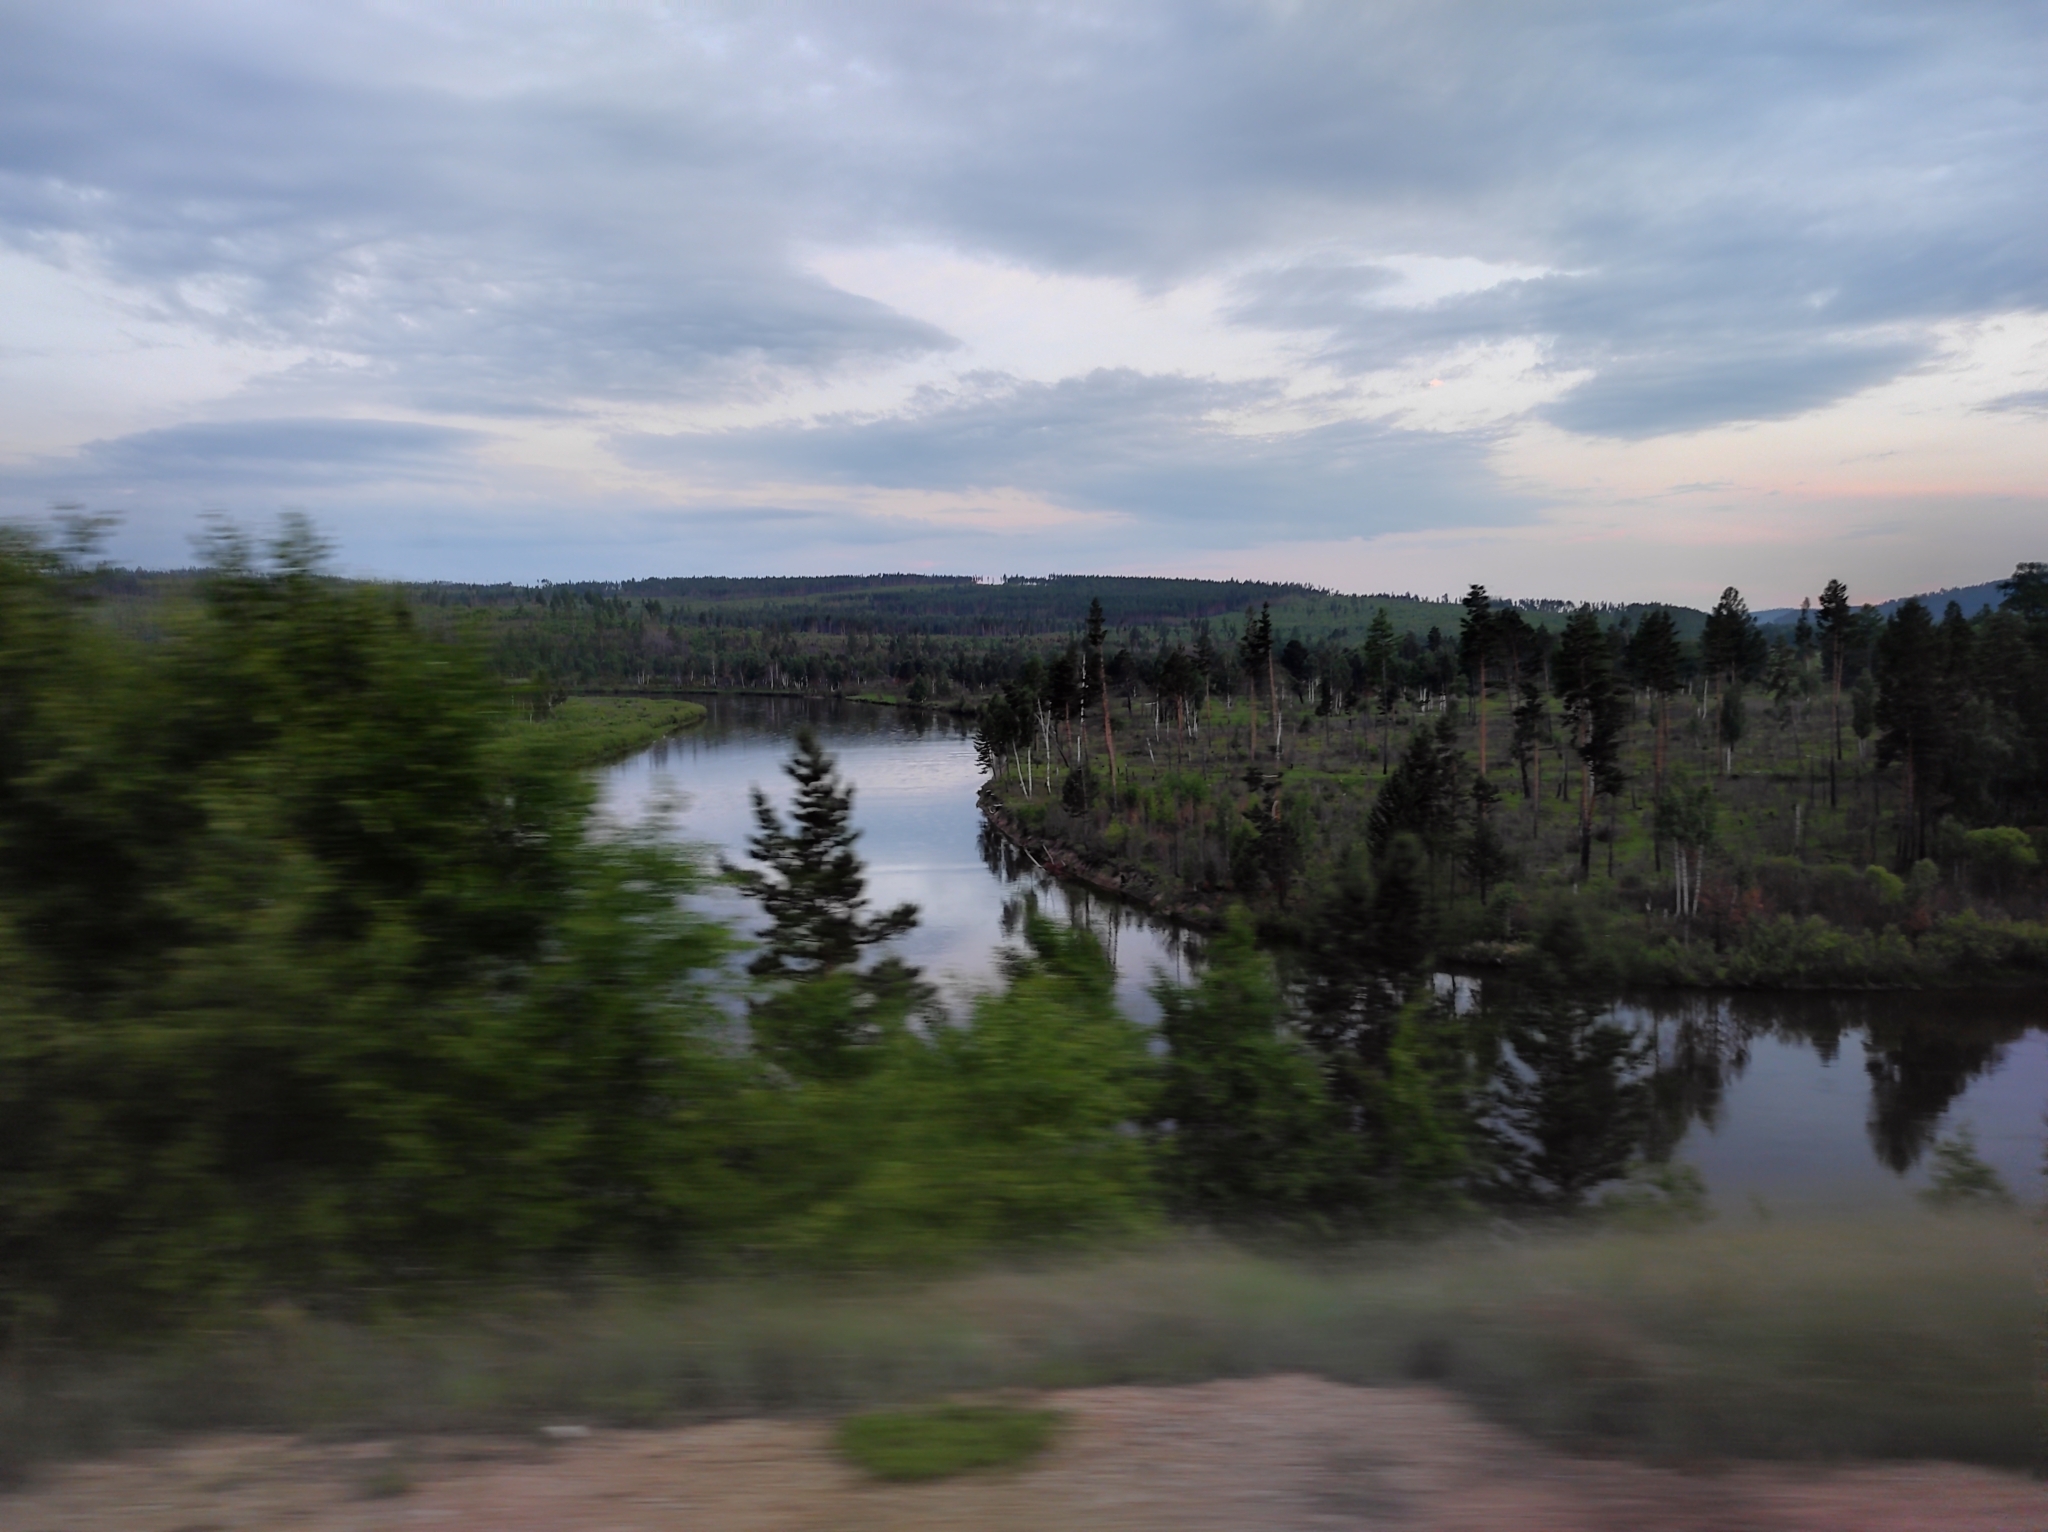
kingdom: Plantae
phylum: Tracheophyta
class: Pinopsida
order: Pinales
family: Pinaceae
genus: Pinus
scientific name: Pinus sylvestris
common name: Scots pine
